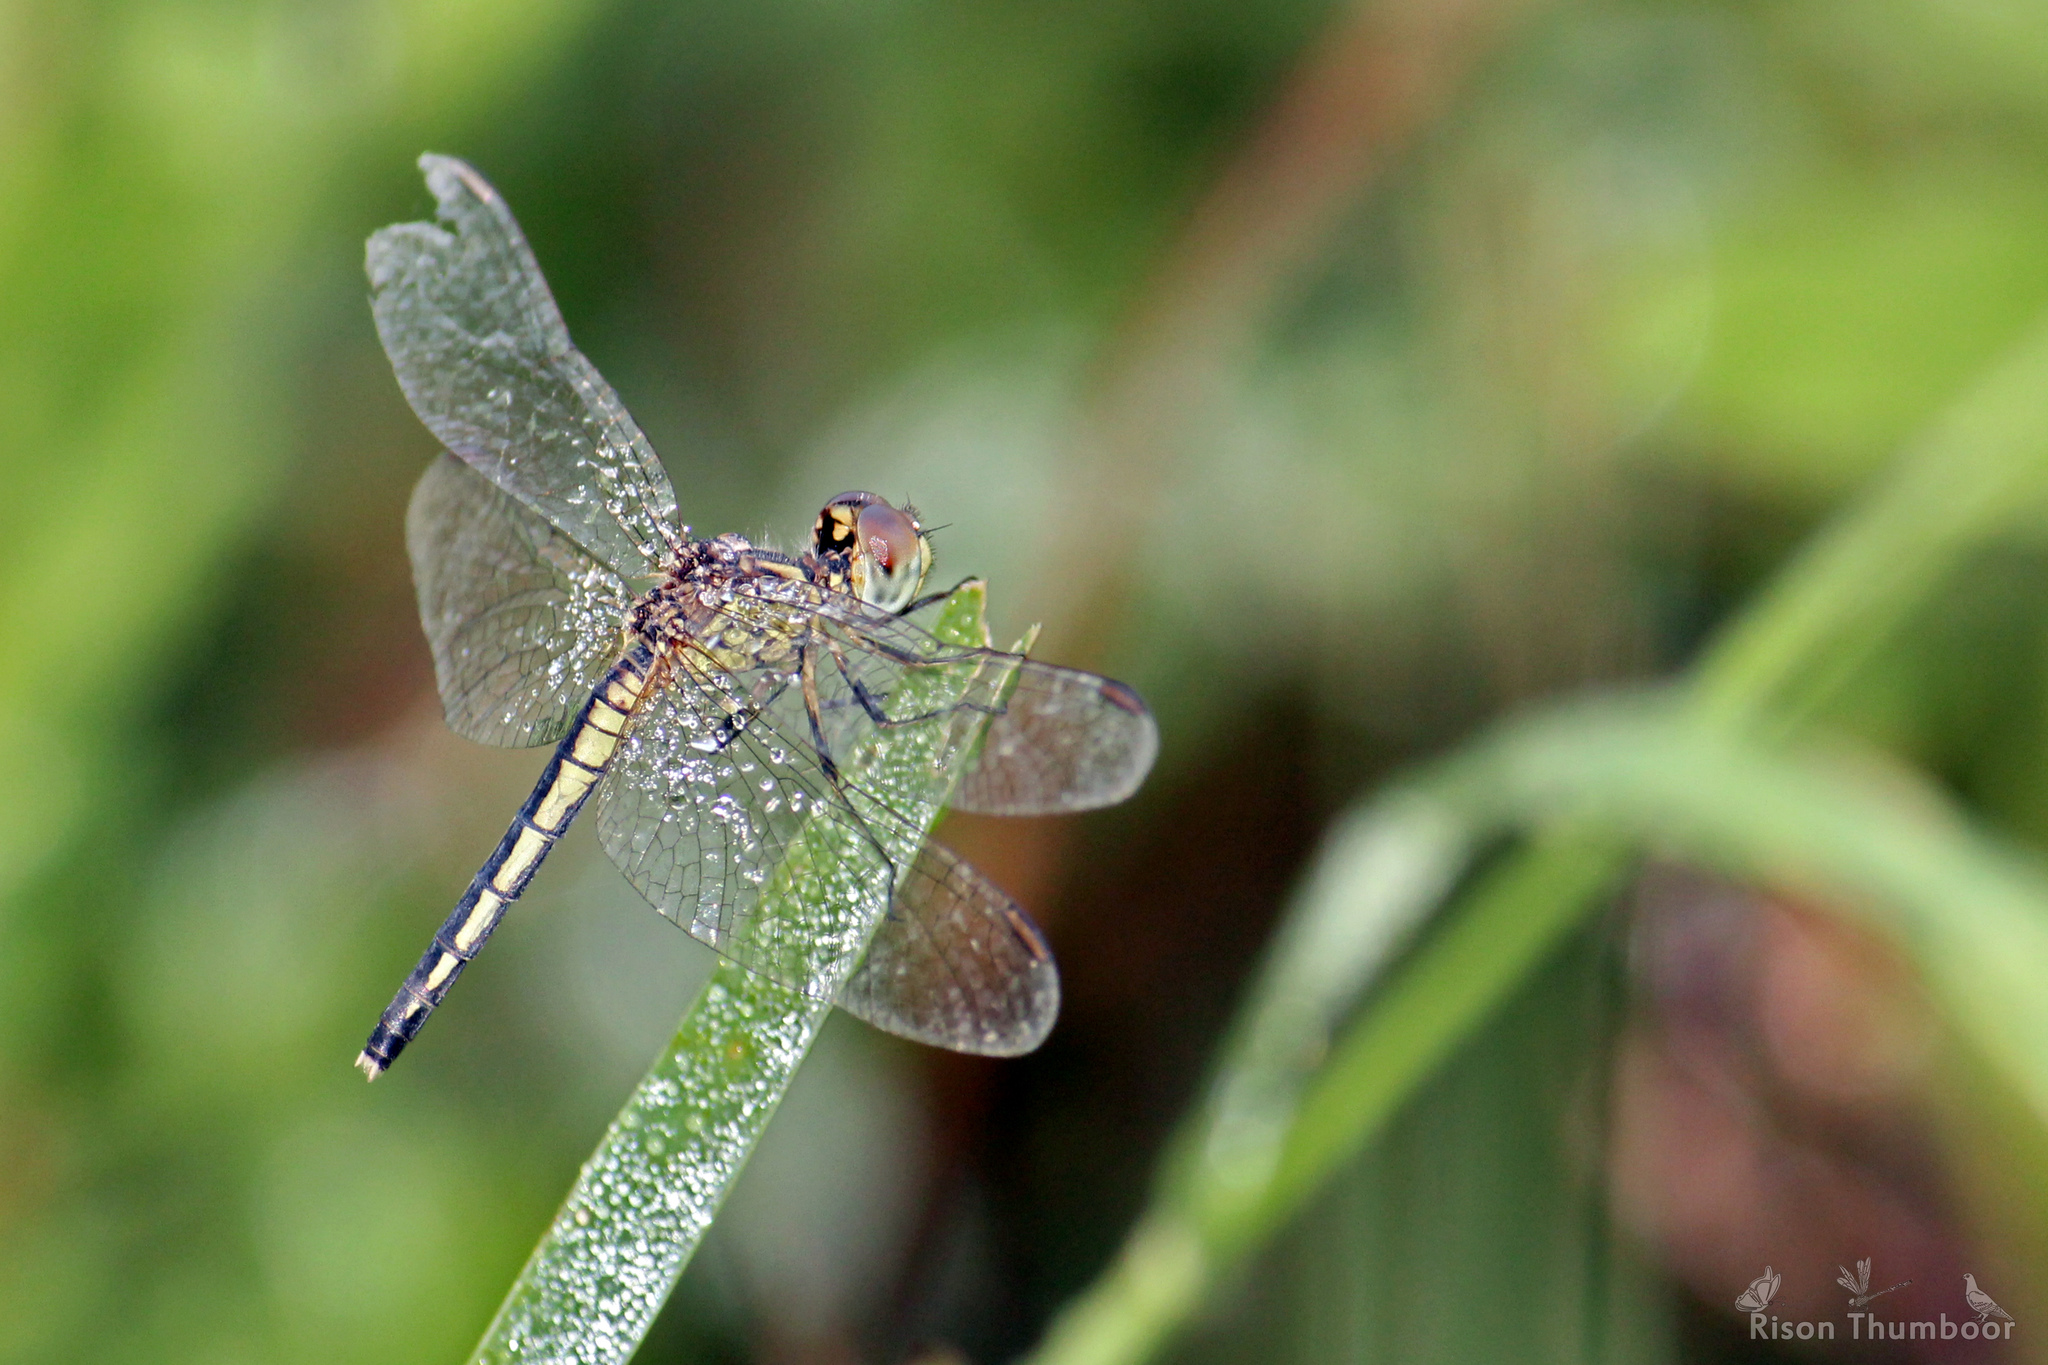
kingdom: Animalia
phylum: Arthropoda
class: Insecta
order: Odonata
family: Libellulidae
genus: Diplacodes
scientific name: Diplacodes nebulosa
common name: Black-tipped percher
